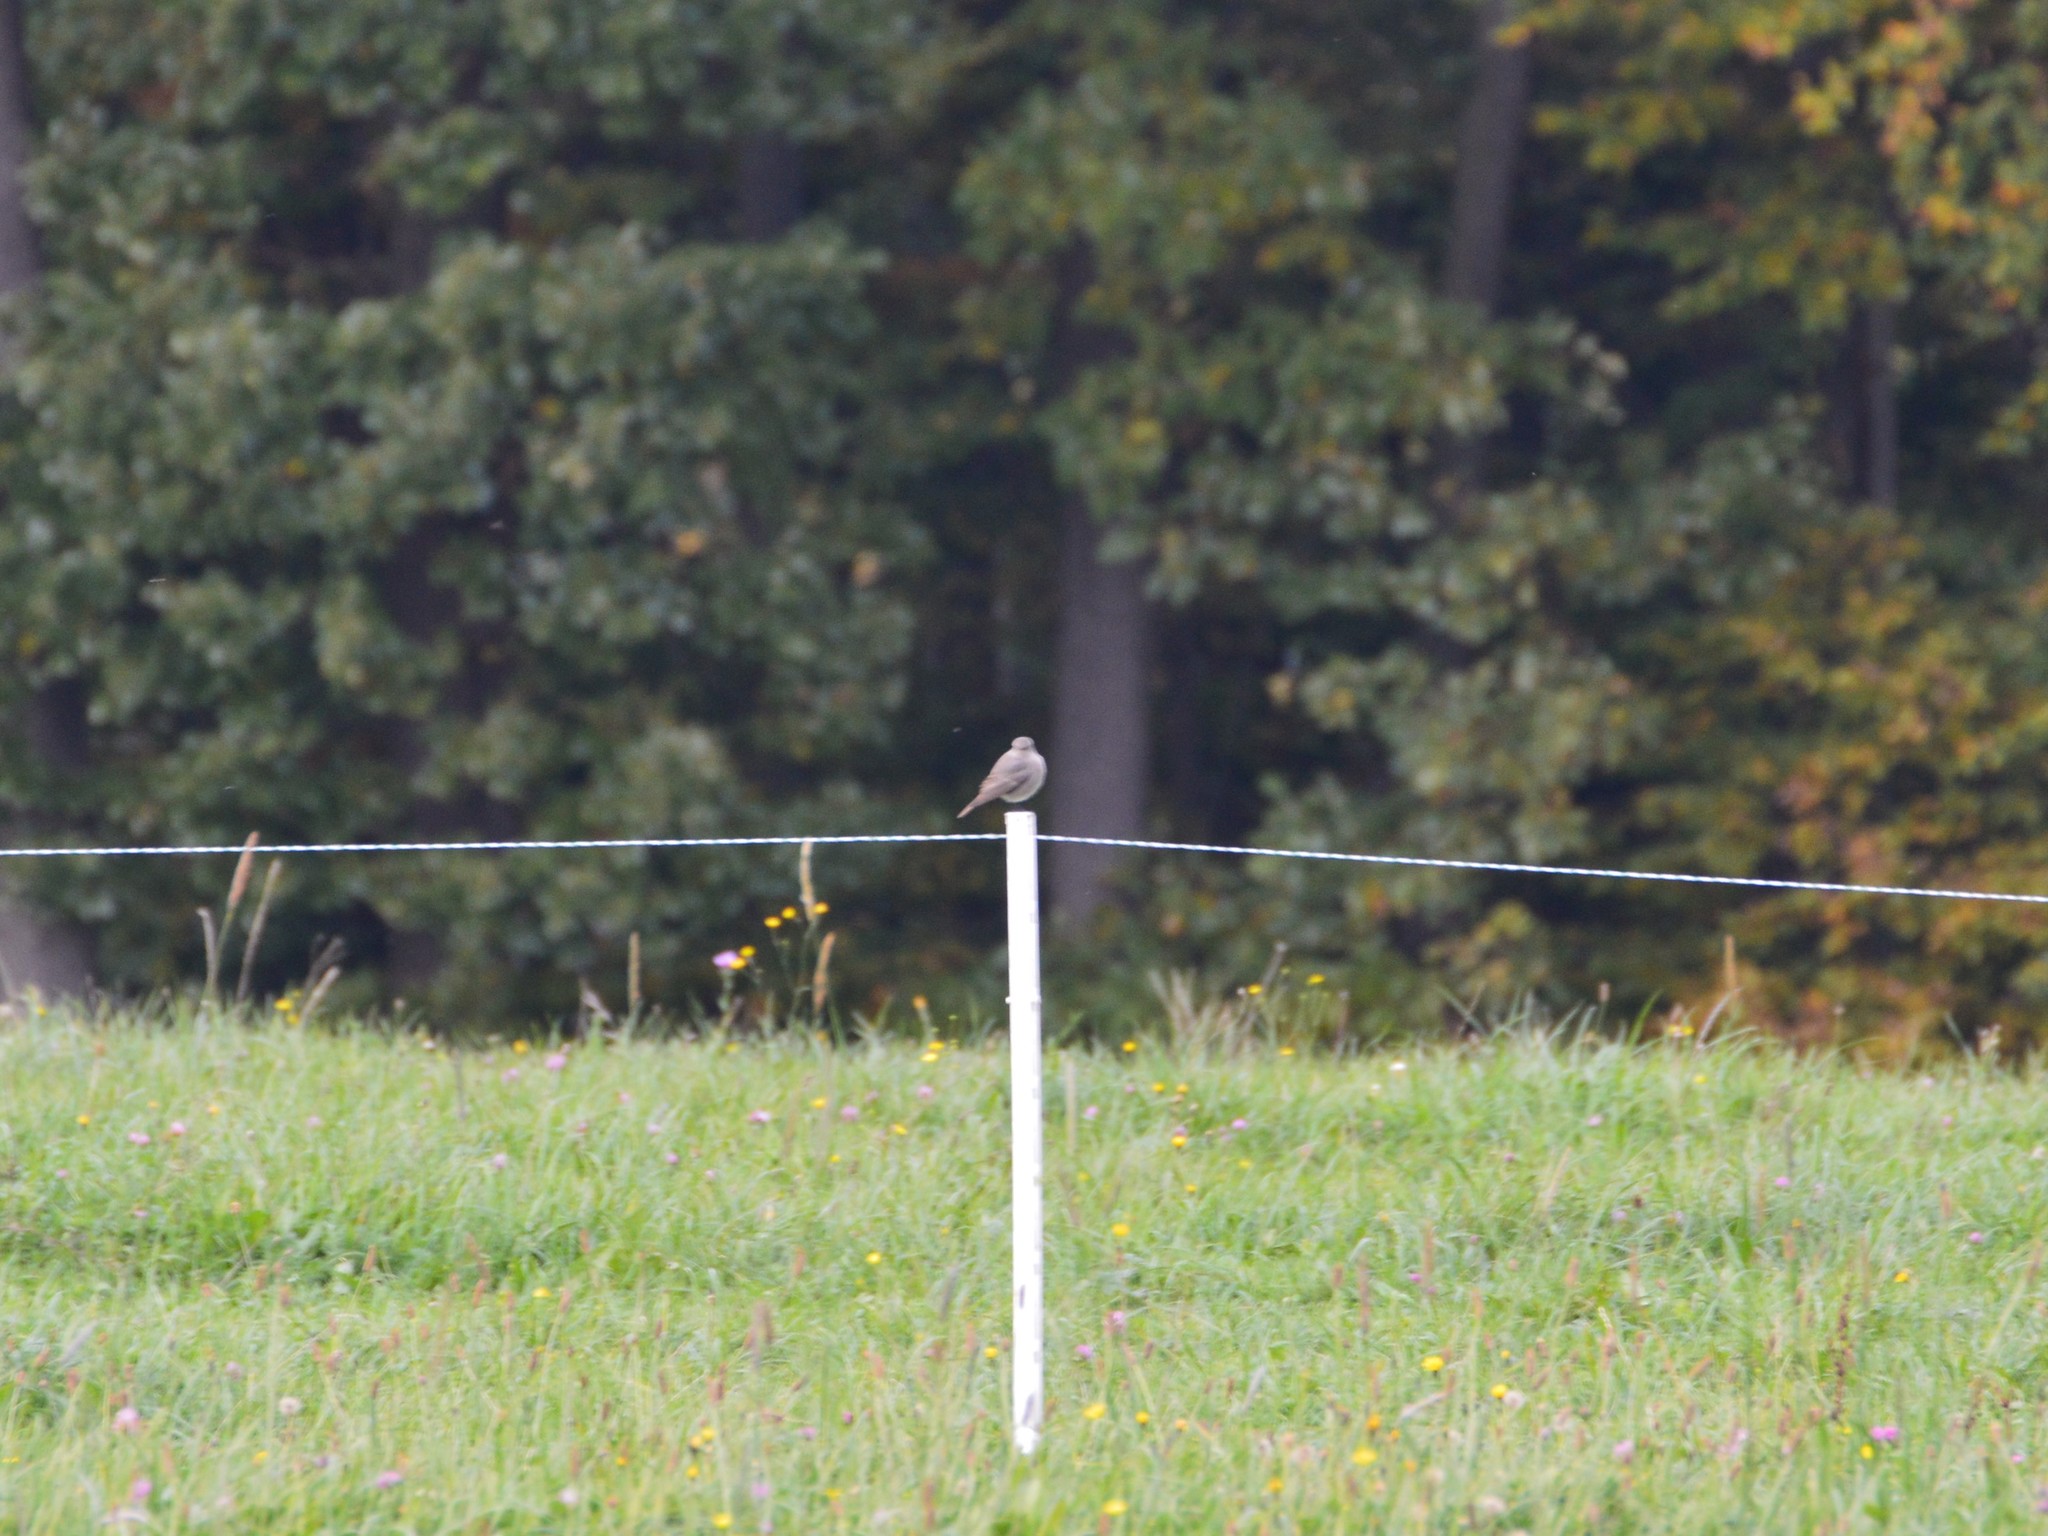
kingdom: Animalia
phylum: Chordata
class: Aves
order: Passeriformes
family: Muscicapidae
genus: Phoenicurus
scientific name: Phoenicurus ochruros
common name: Black redstart
